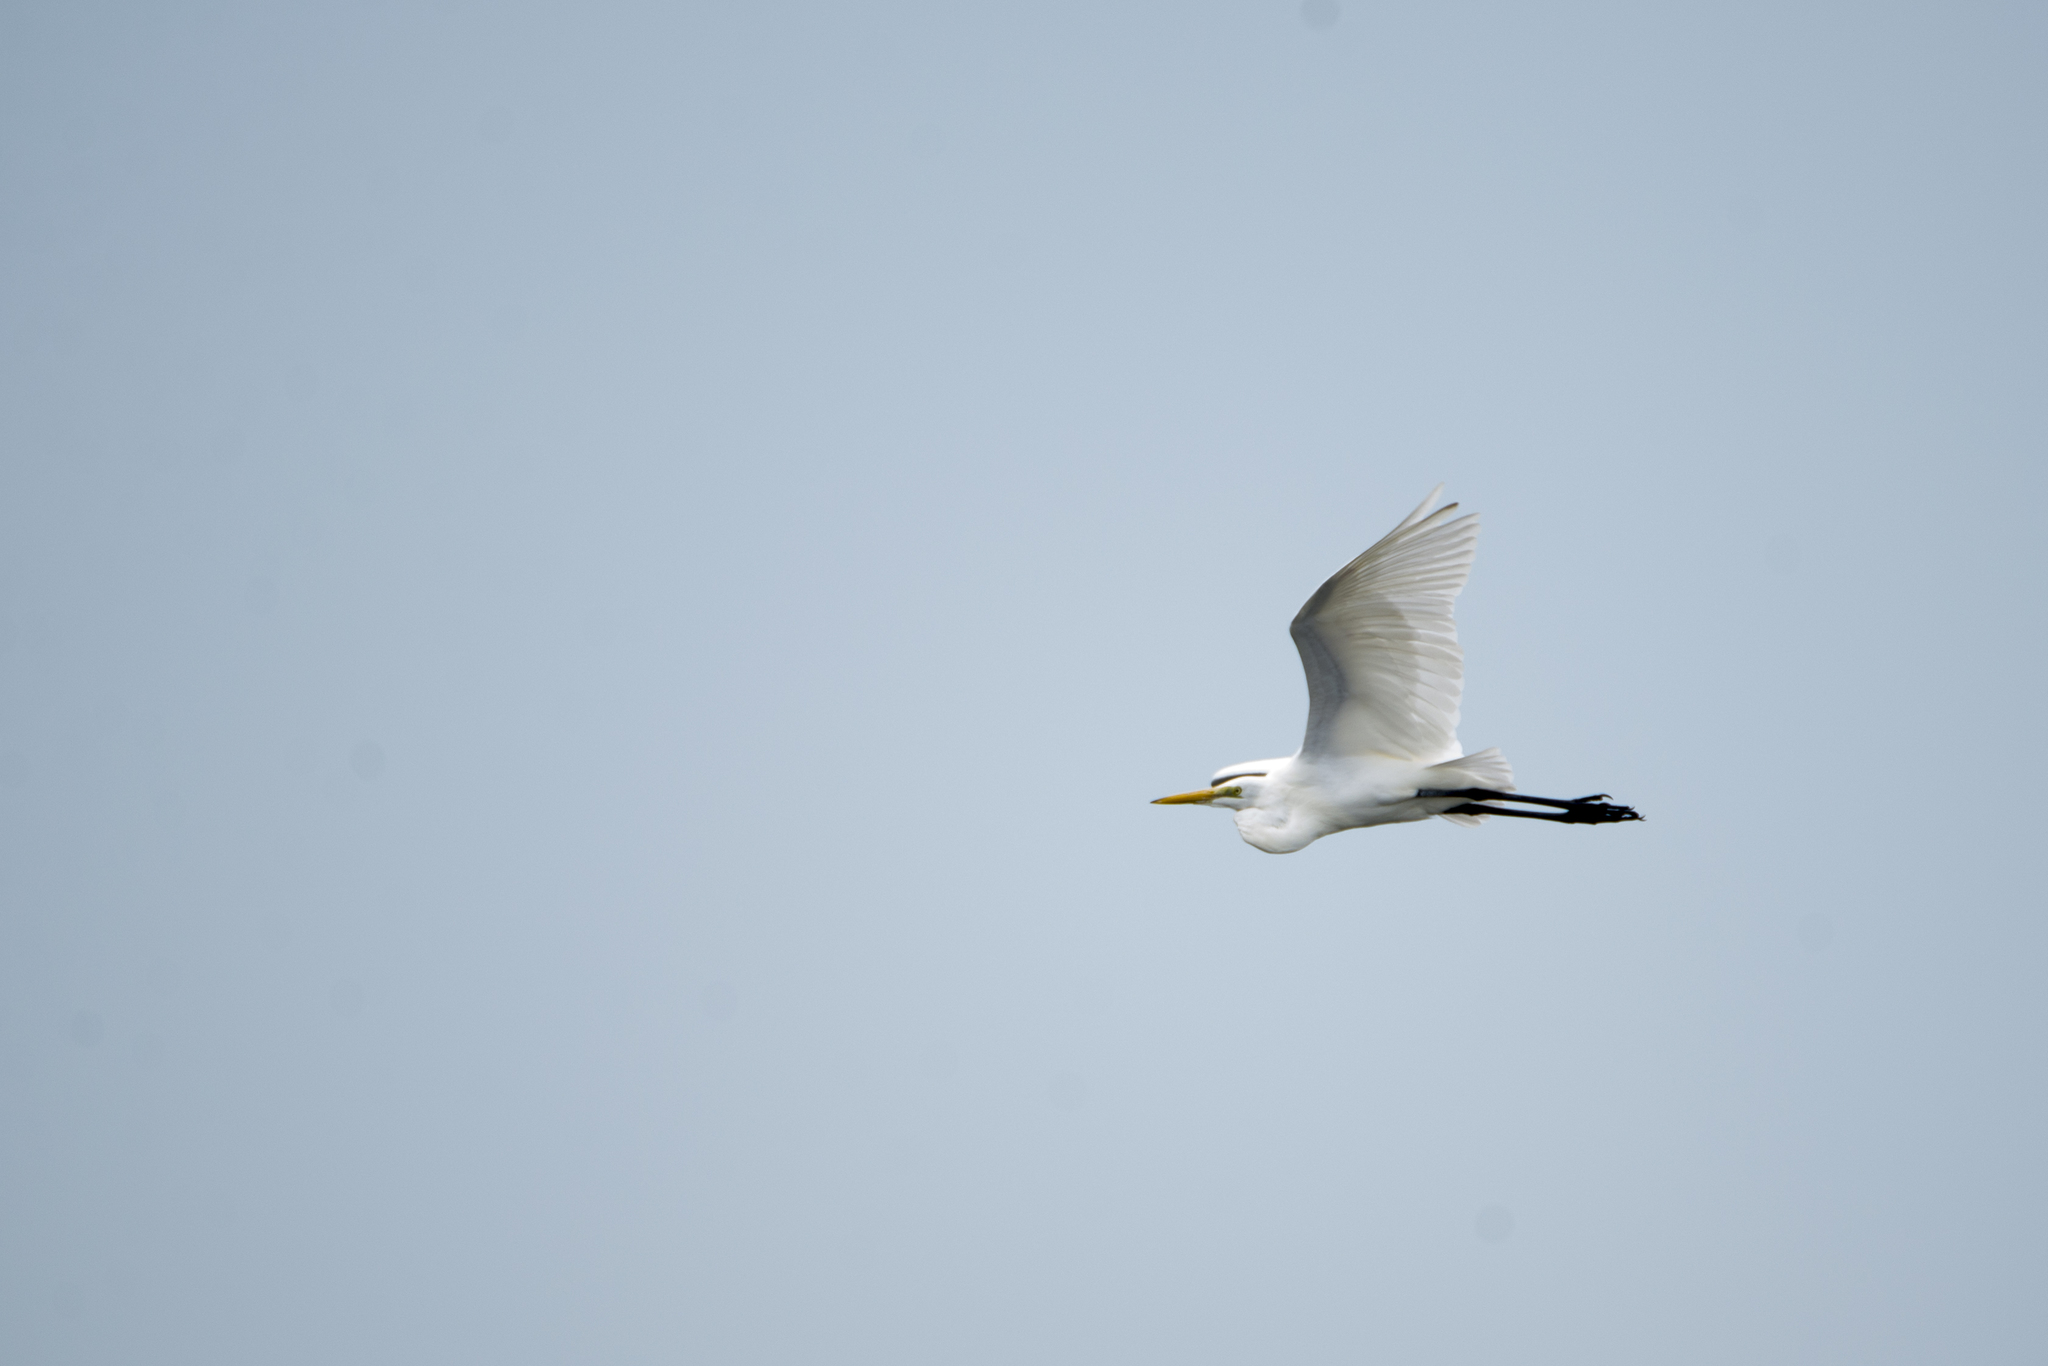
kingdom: Animalia
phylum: Chordata
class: Aves
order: Pelecaniformes
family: Ardeidae
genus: Ardea
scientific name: Ardea modesta
